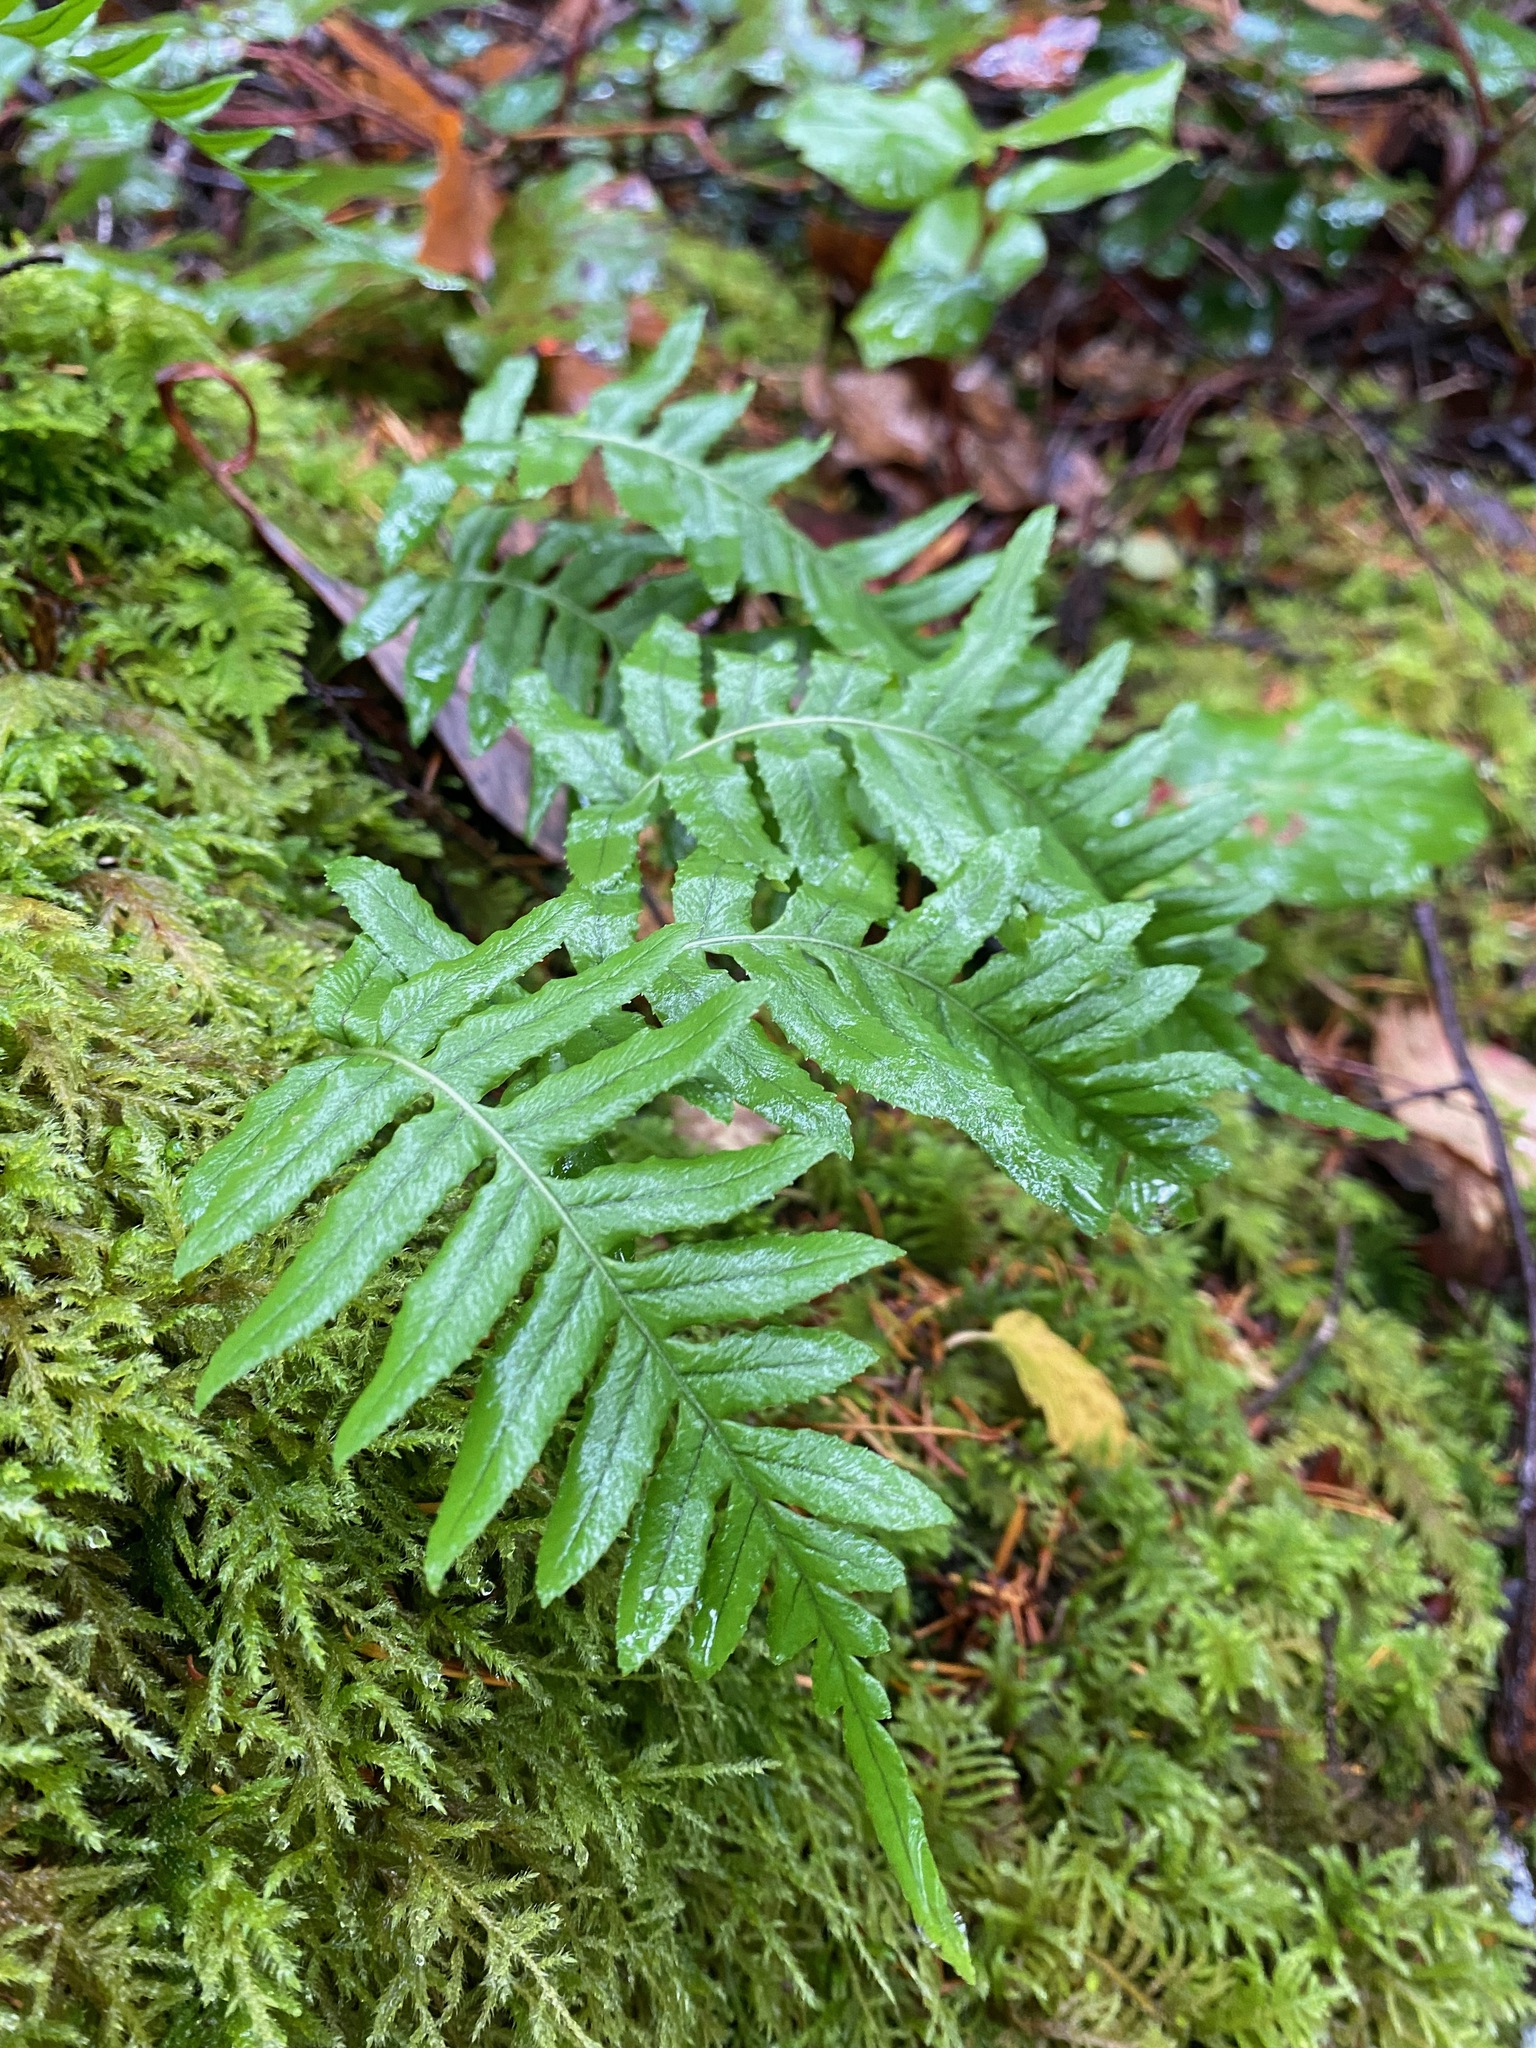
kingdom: Plantae
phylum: Tracheophyta
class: Polypodiopsida
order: Polypodiales
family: Polypodiaceae
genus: Polypodium
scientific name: Polypodium glycyrrhiza
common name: Licorice fern
